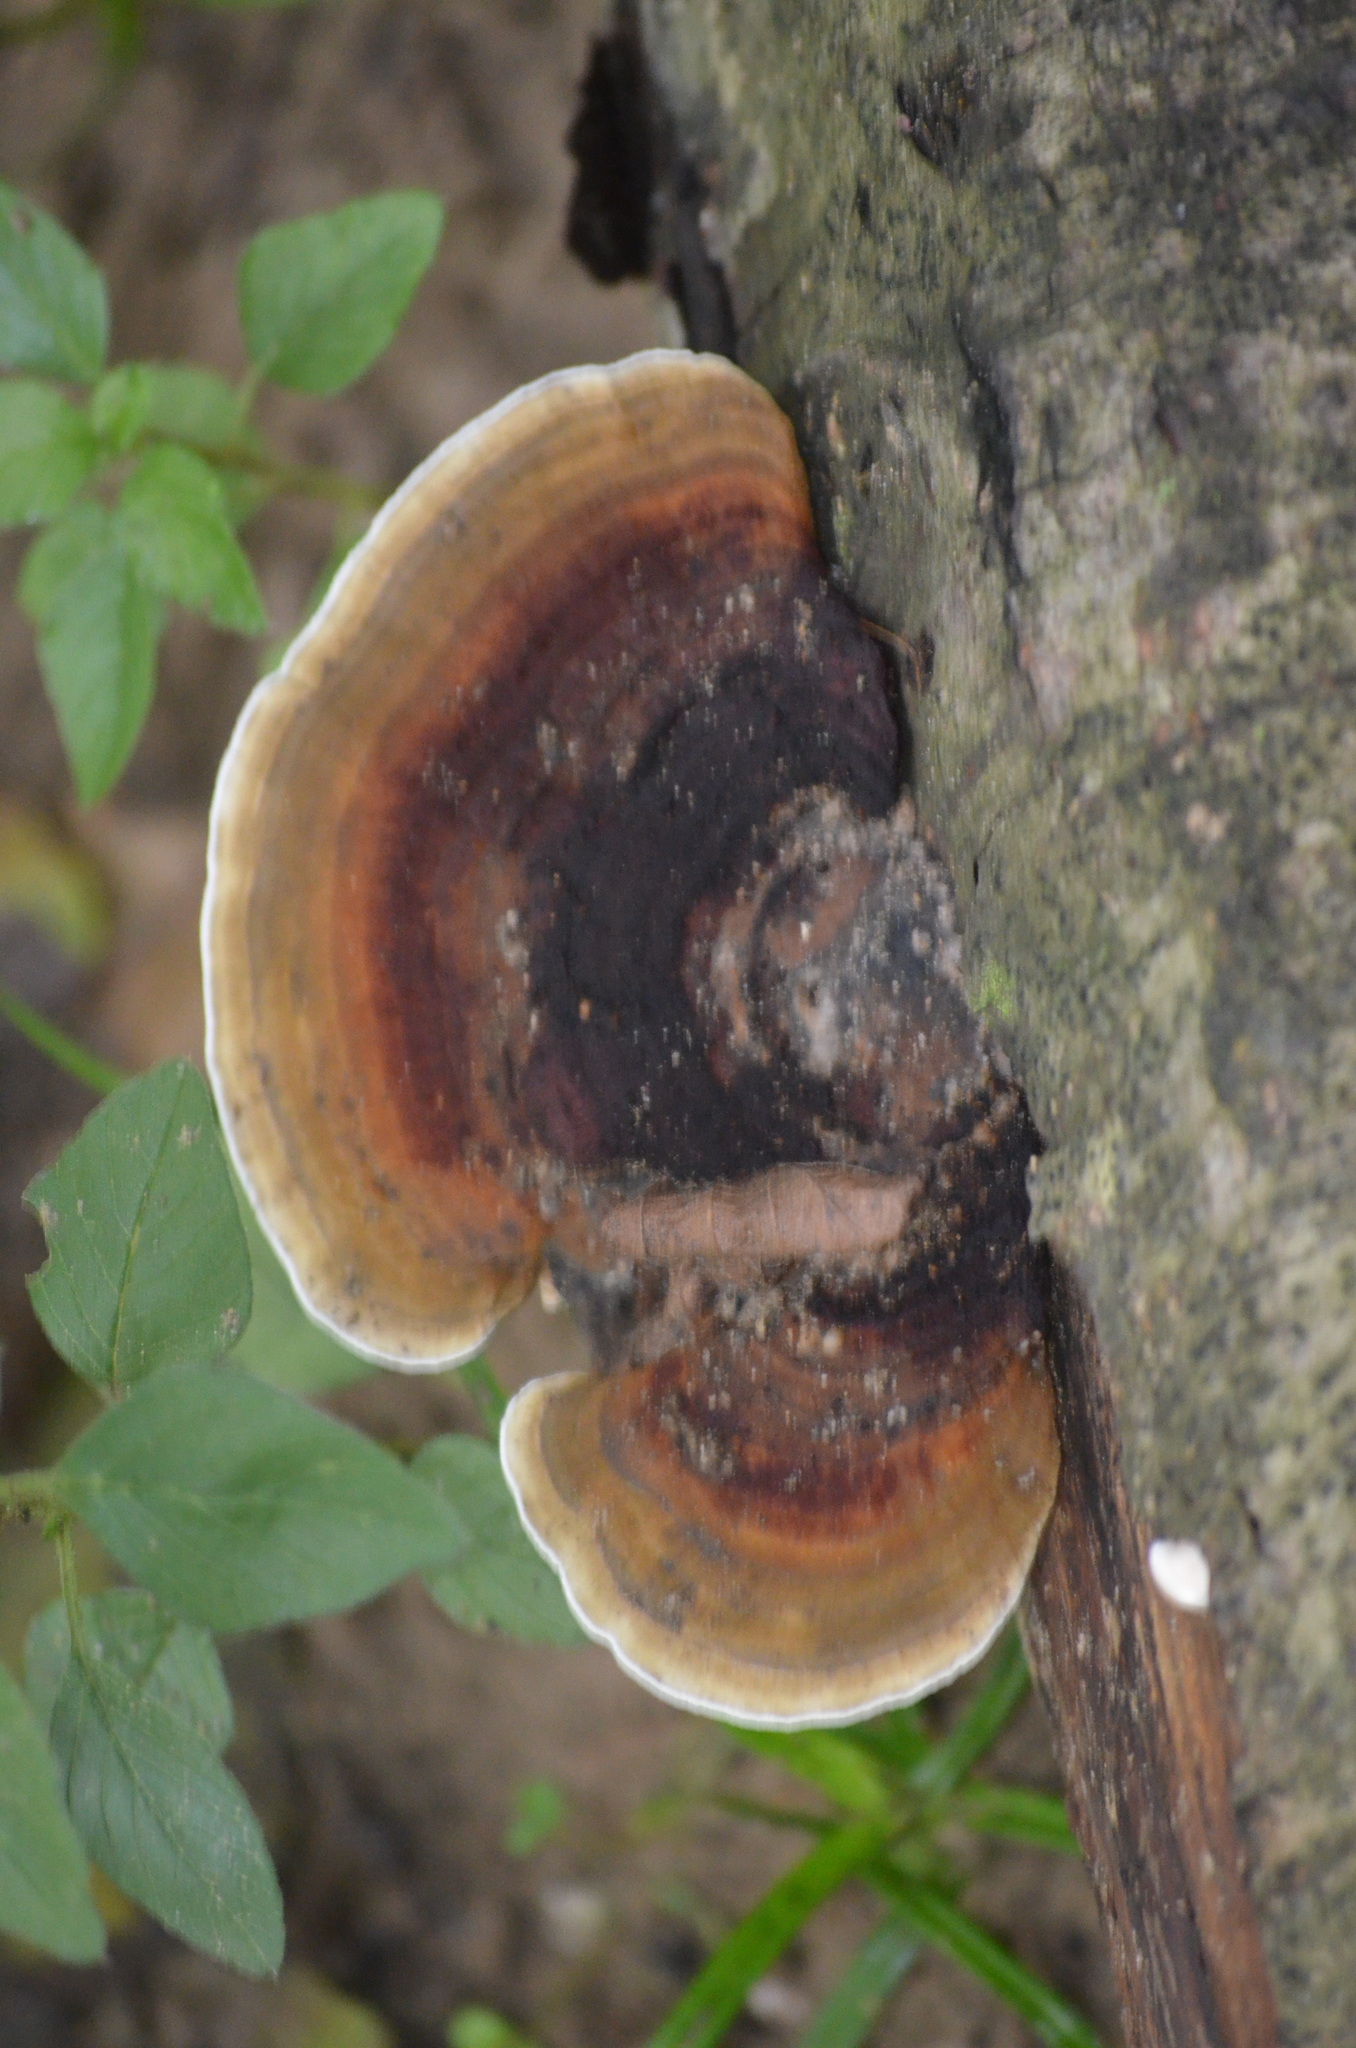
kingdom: Fungi
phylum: Basidiomycota
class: Agaricomycetes
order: Polyporales
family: Polyporaceae
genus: Trametes
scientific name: Trametes versicolor
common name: Turkeytail
